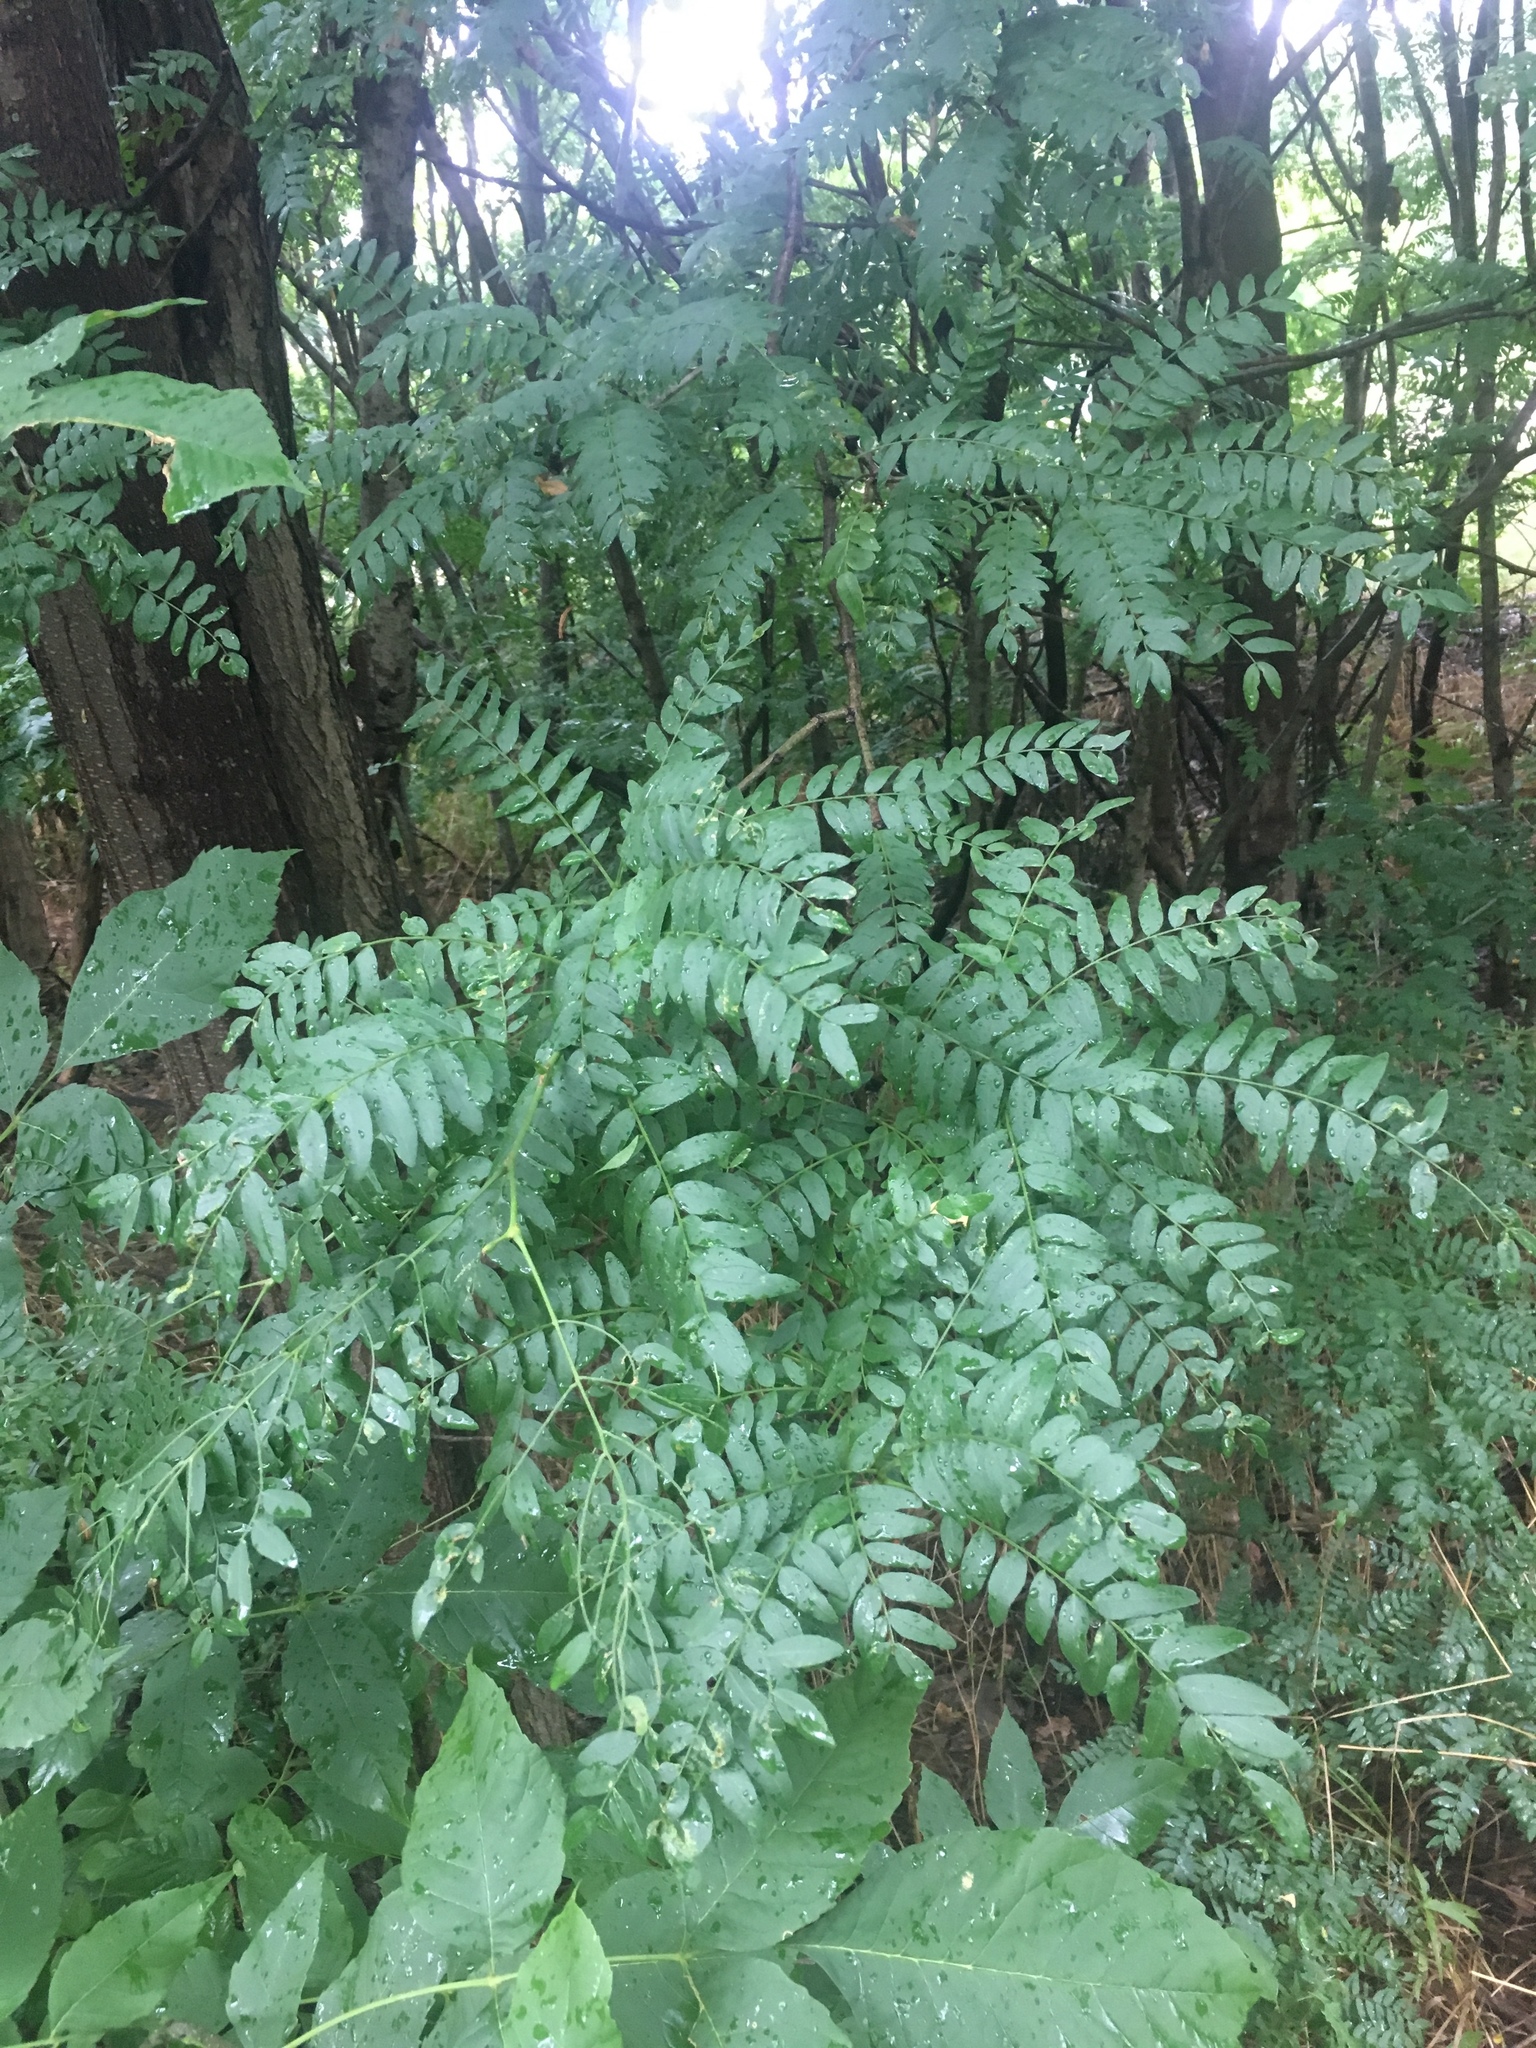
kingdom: Plantae
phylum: Tracheophyta
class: Magnoliopsida
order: Fabales
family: Fabaceae
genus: Gleditsia
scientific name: Gleditsia triacanthos
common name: Common honeylocust
